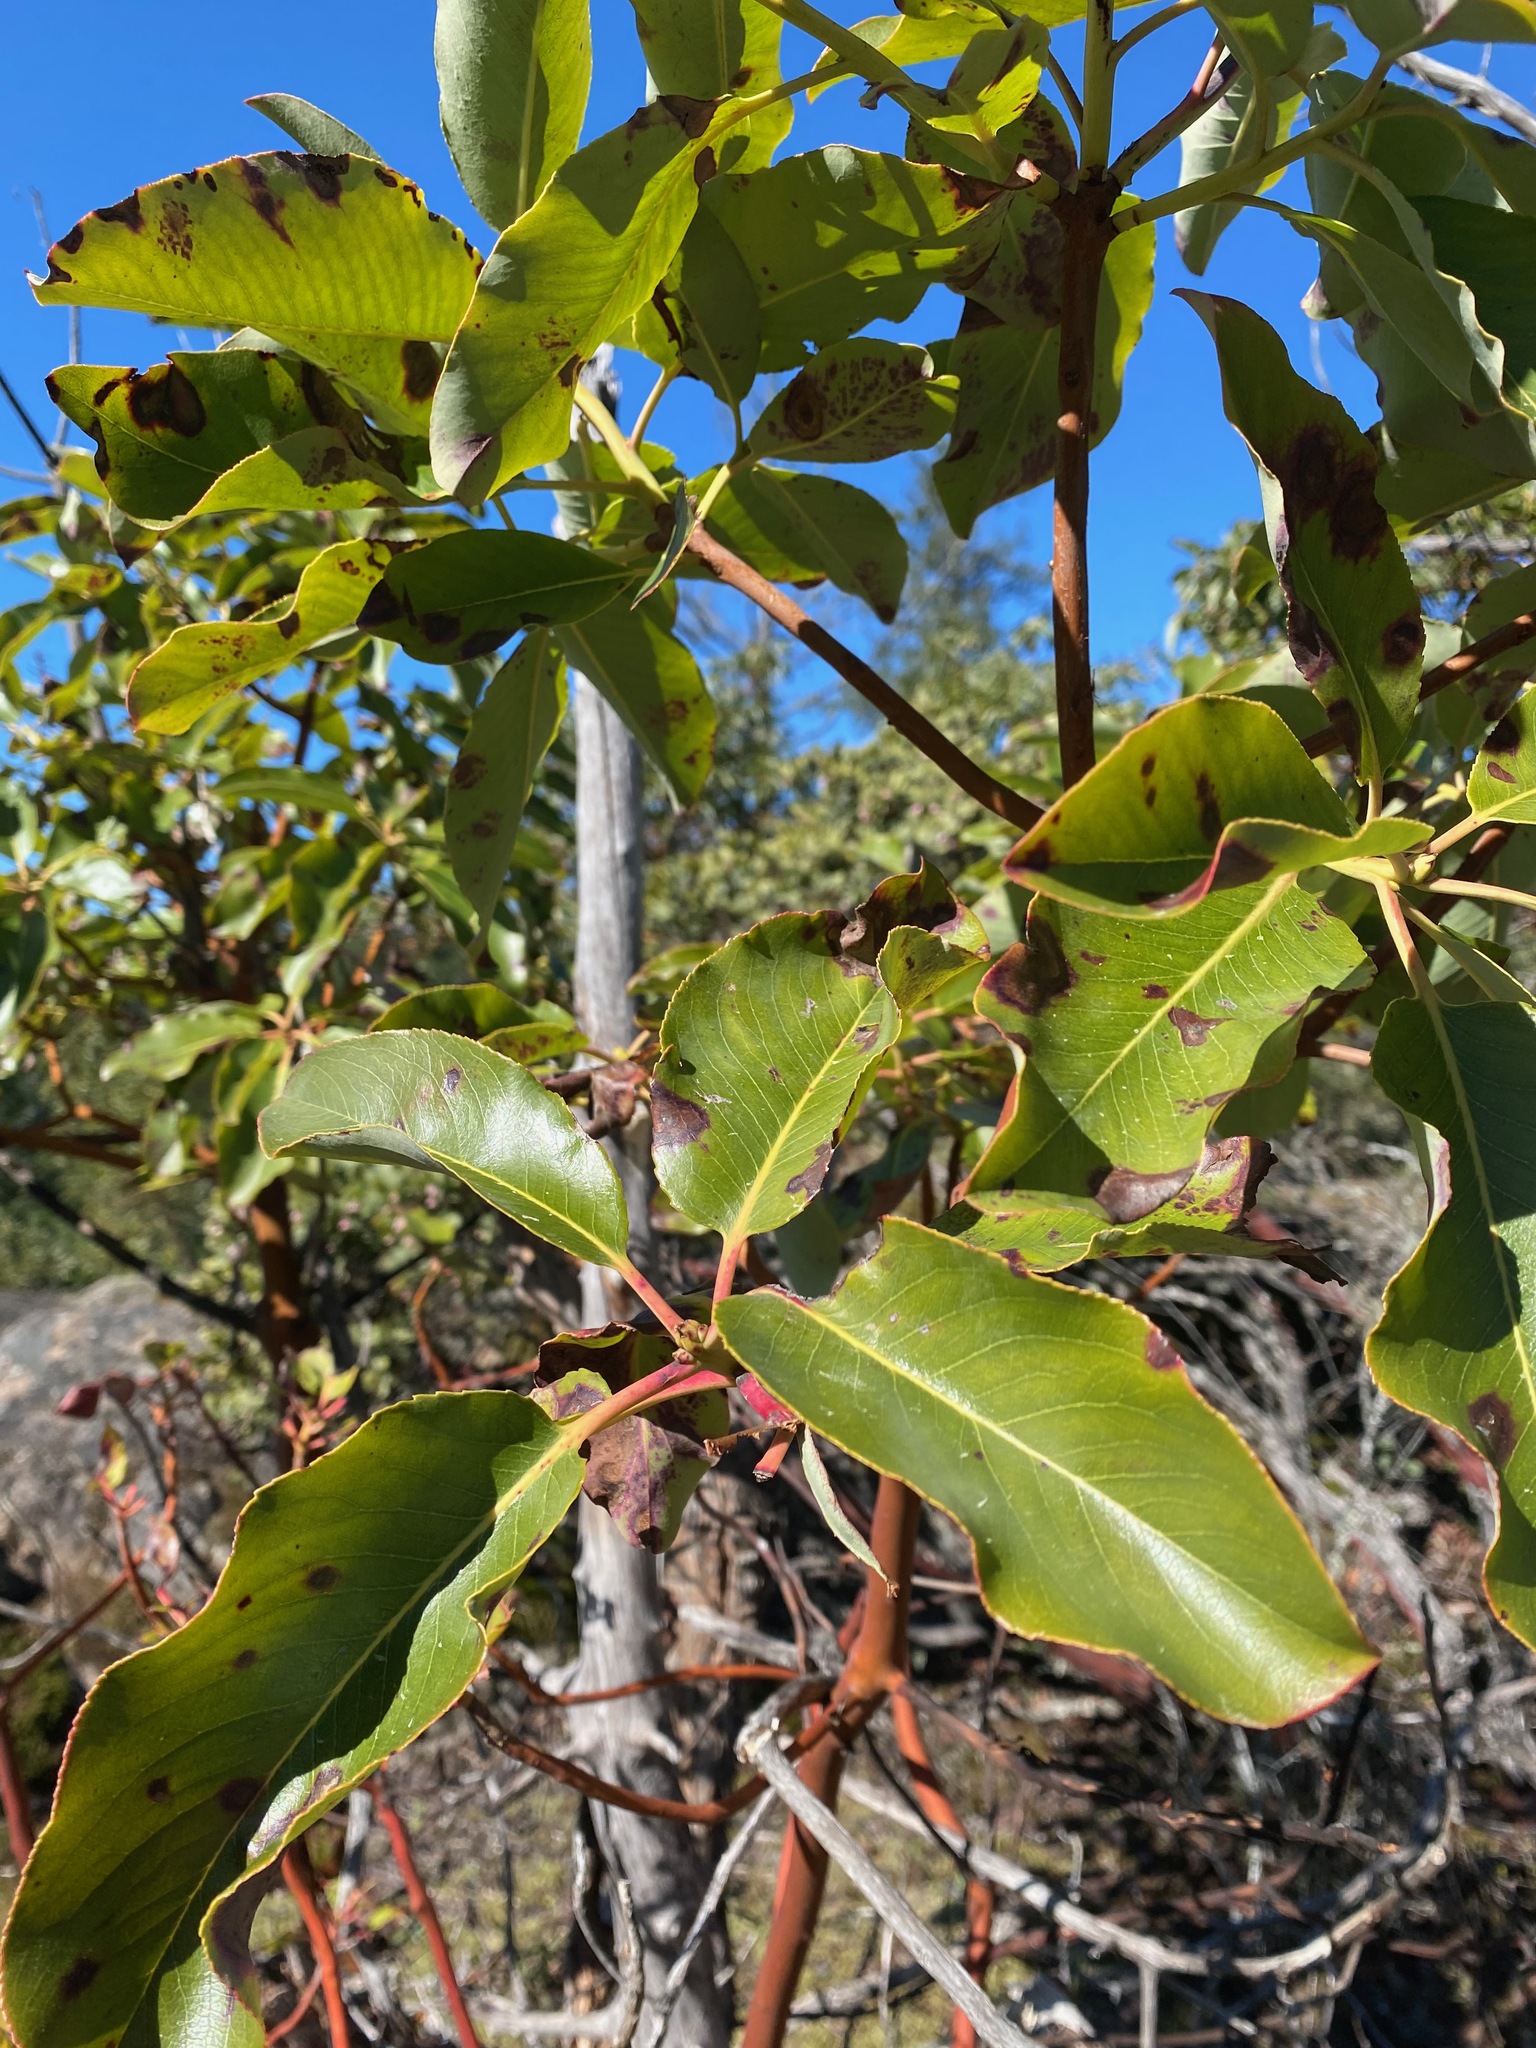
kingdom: Plantae
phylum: Tracheophyta
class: Magnoliopsida
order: Ericales
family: Ericaceae
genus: Arbutus
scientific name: Arbutus menziesii
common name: Pacific madrone
